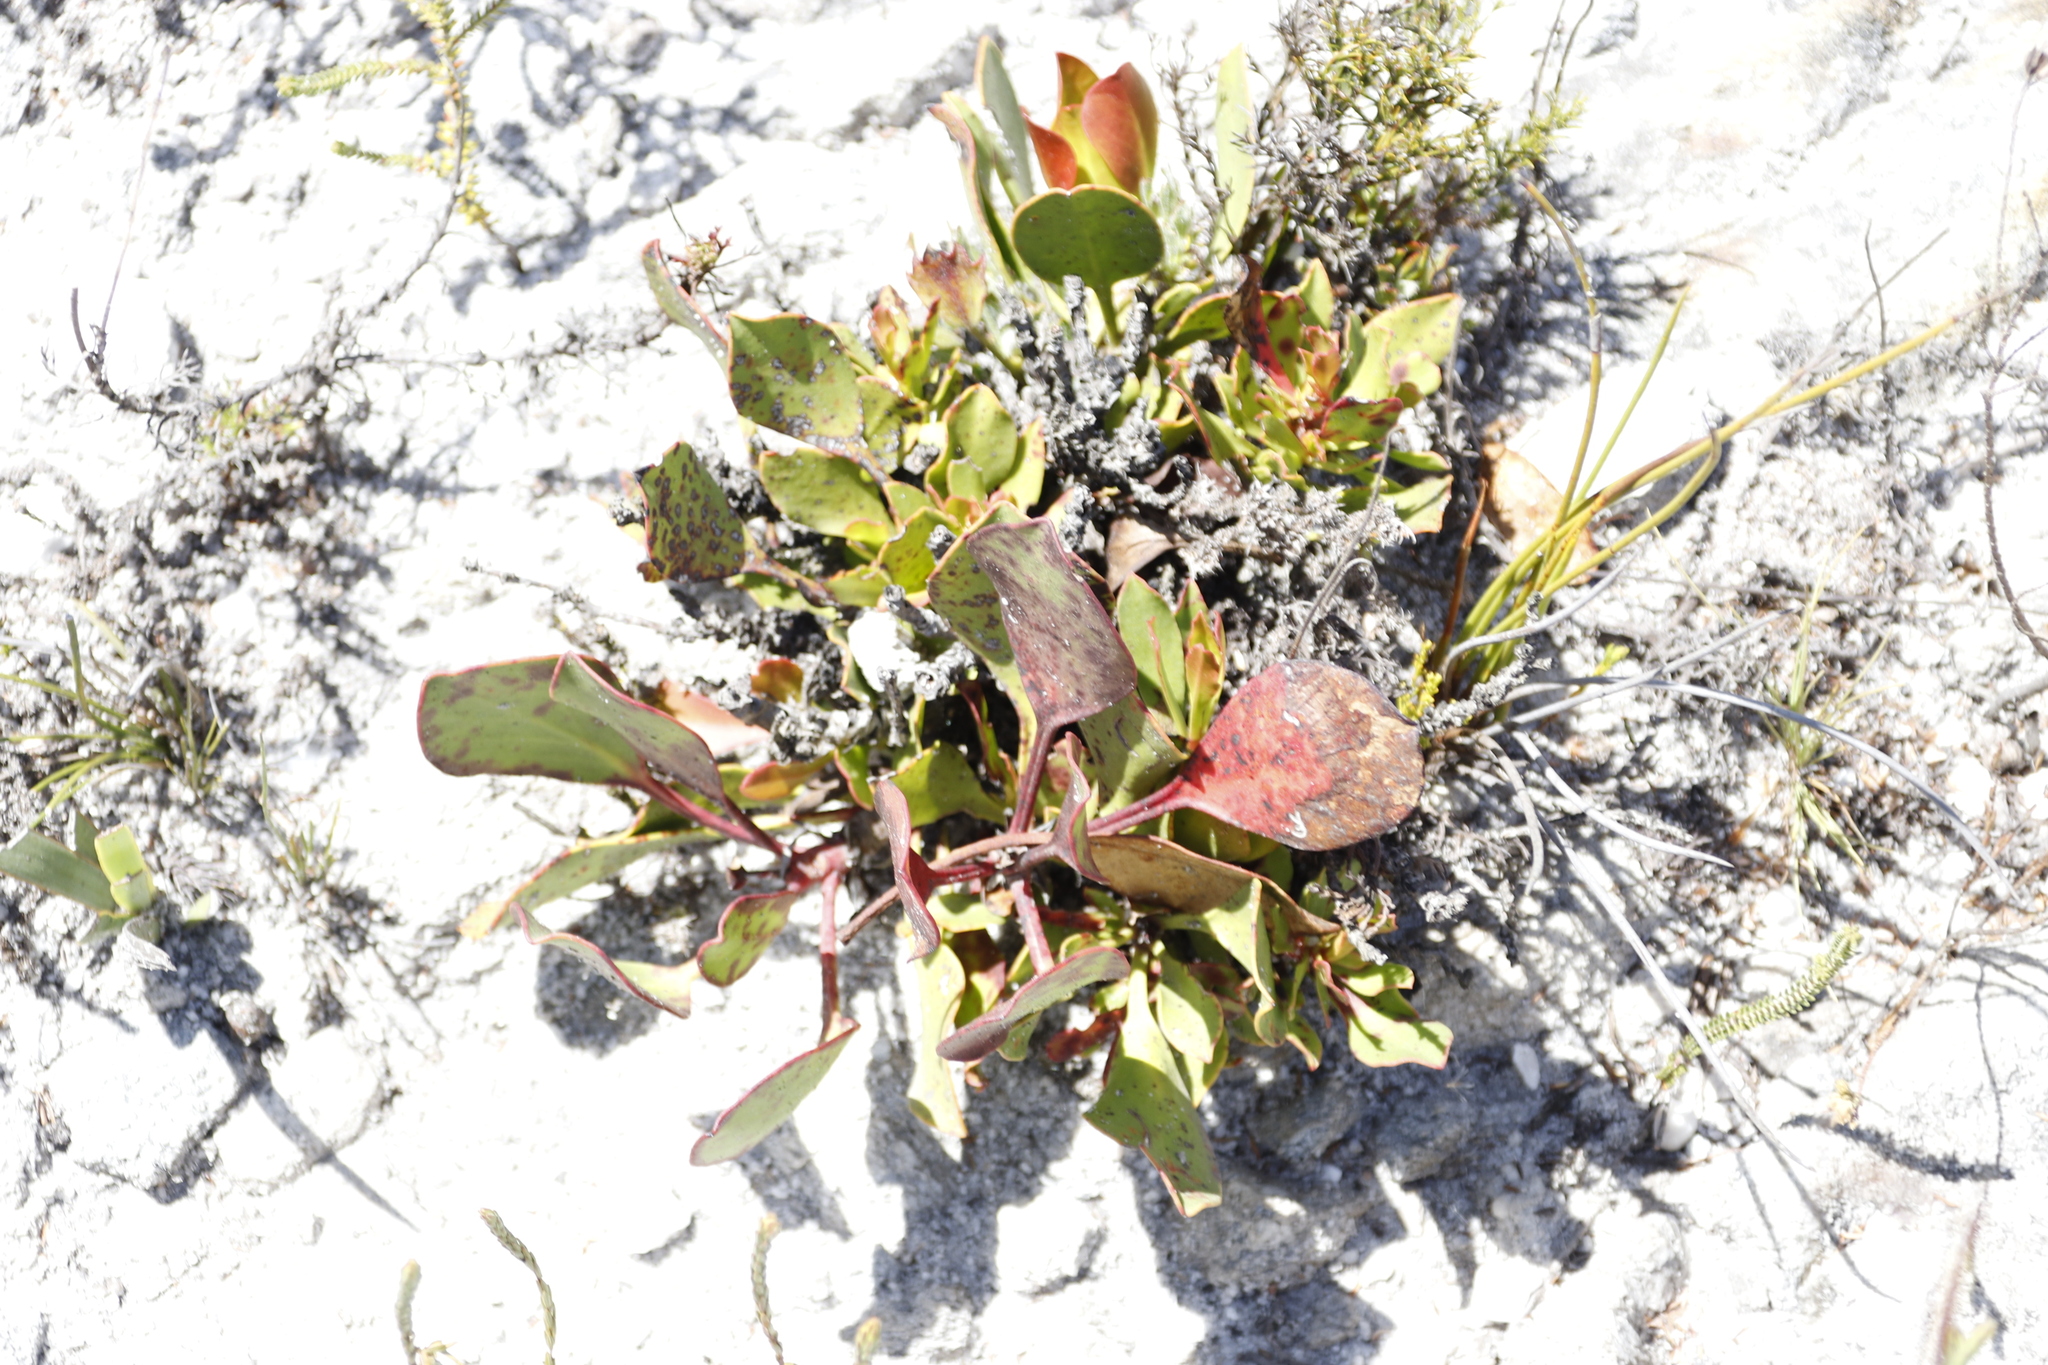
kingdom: Plantae
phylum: Tracheophyta
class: Magnoliopsida
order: Proteales
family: Proteaceae
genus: Protea
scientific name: Protea cynaroides
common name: King protea
